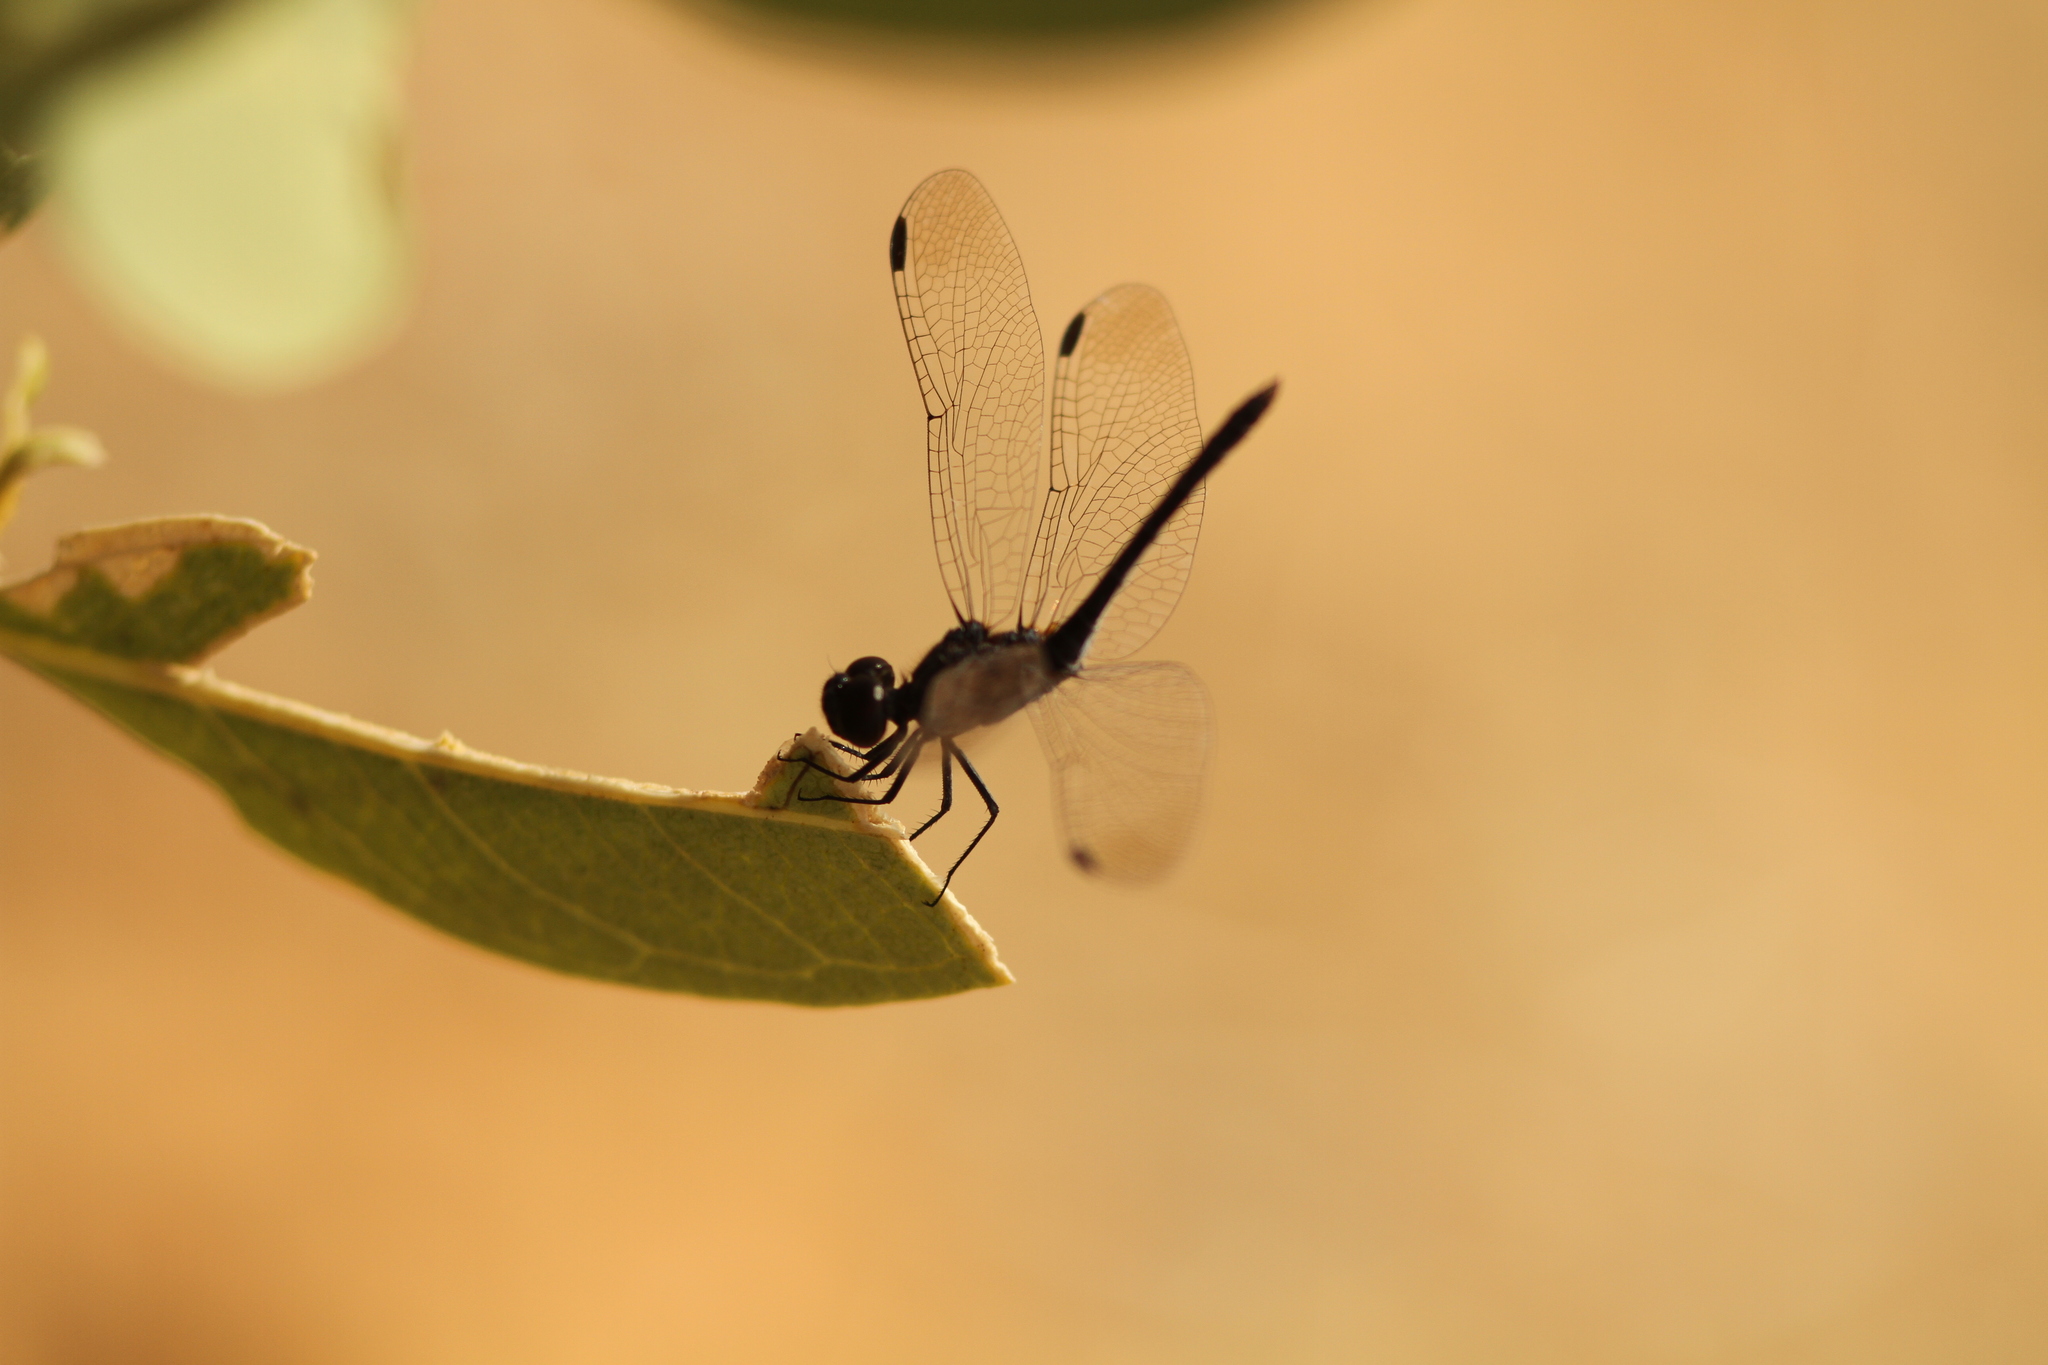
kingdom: Animalia
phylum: Arthropoda
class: Insecta
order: Odonata
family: Libellulidae
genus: Diplacodes
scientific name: Diplacodes lefebvrii
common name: Black percher
